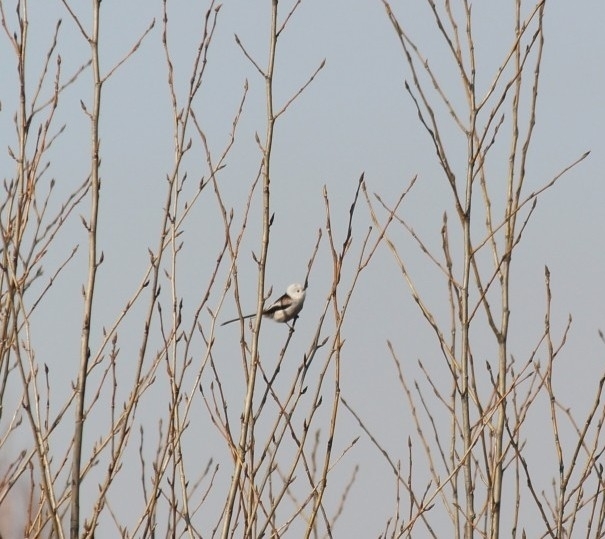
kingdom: Animalia
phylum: Chordata
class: Aves
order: Passeriformes
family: Aegithalidae
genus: Aegithalos
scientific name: Aegithalos caudatus
